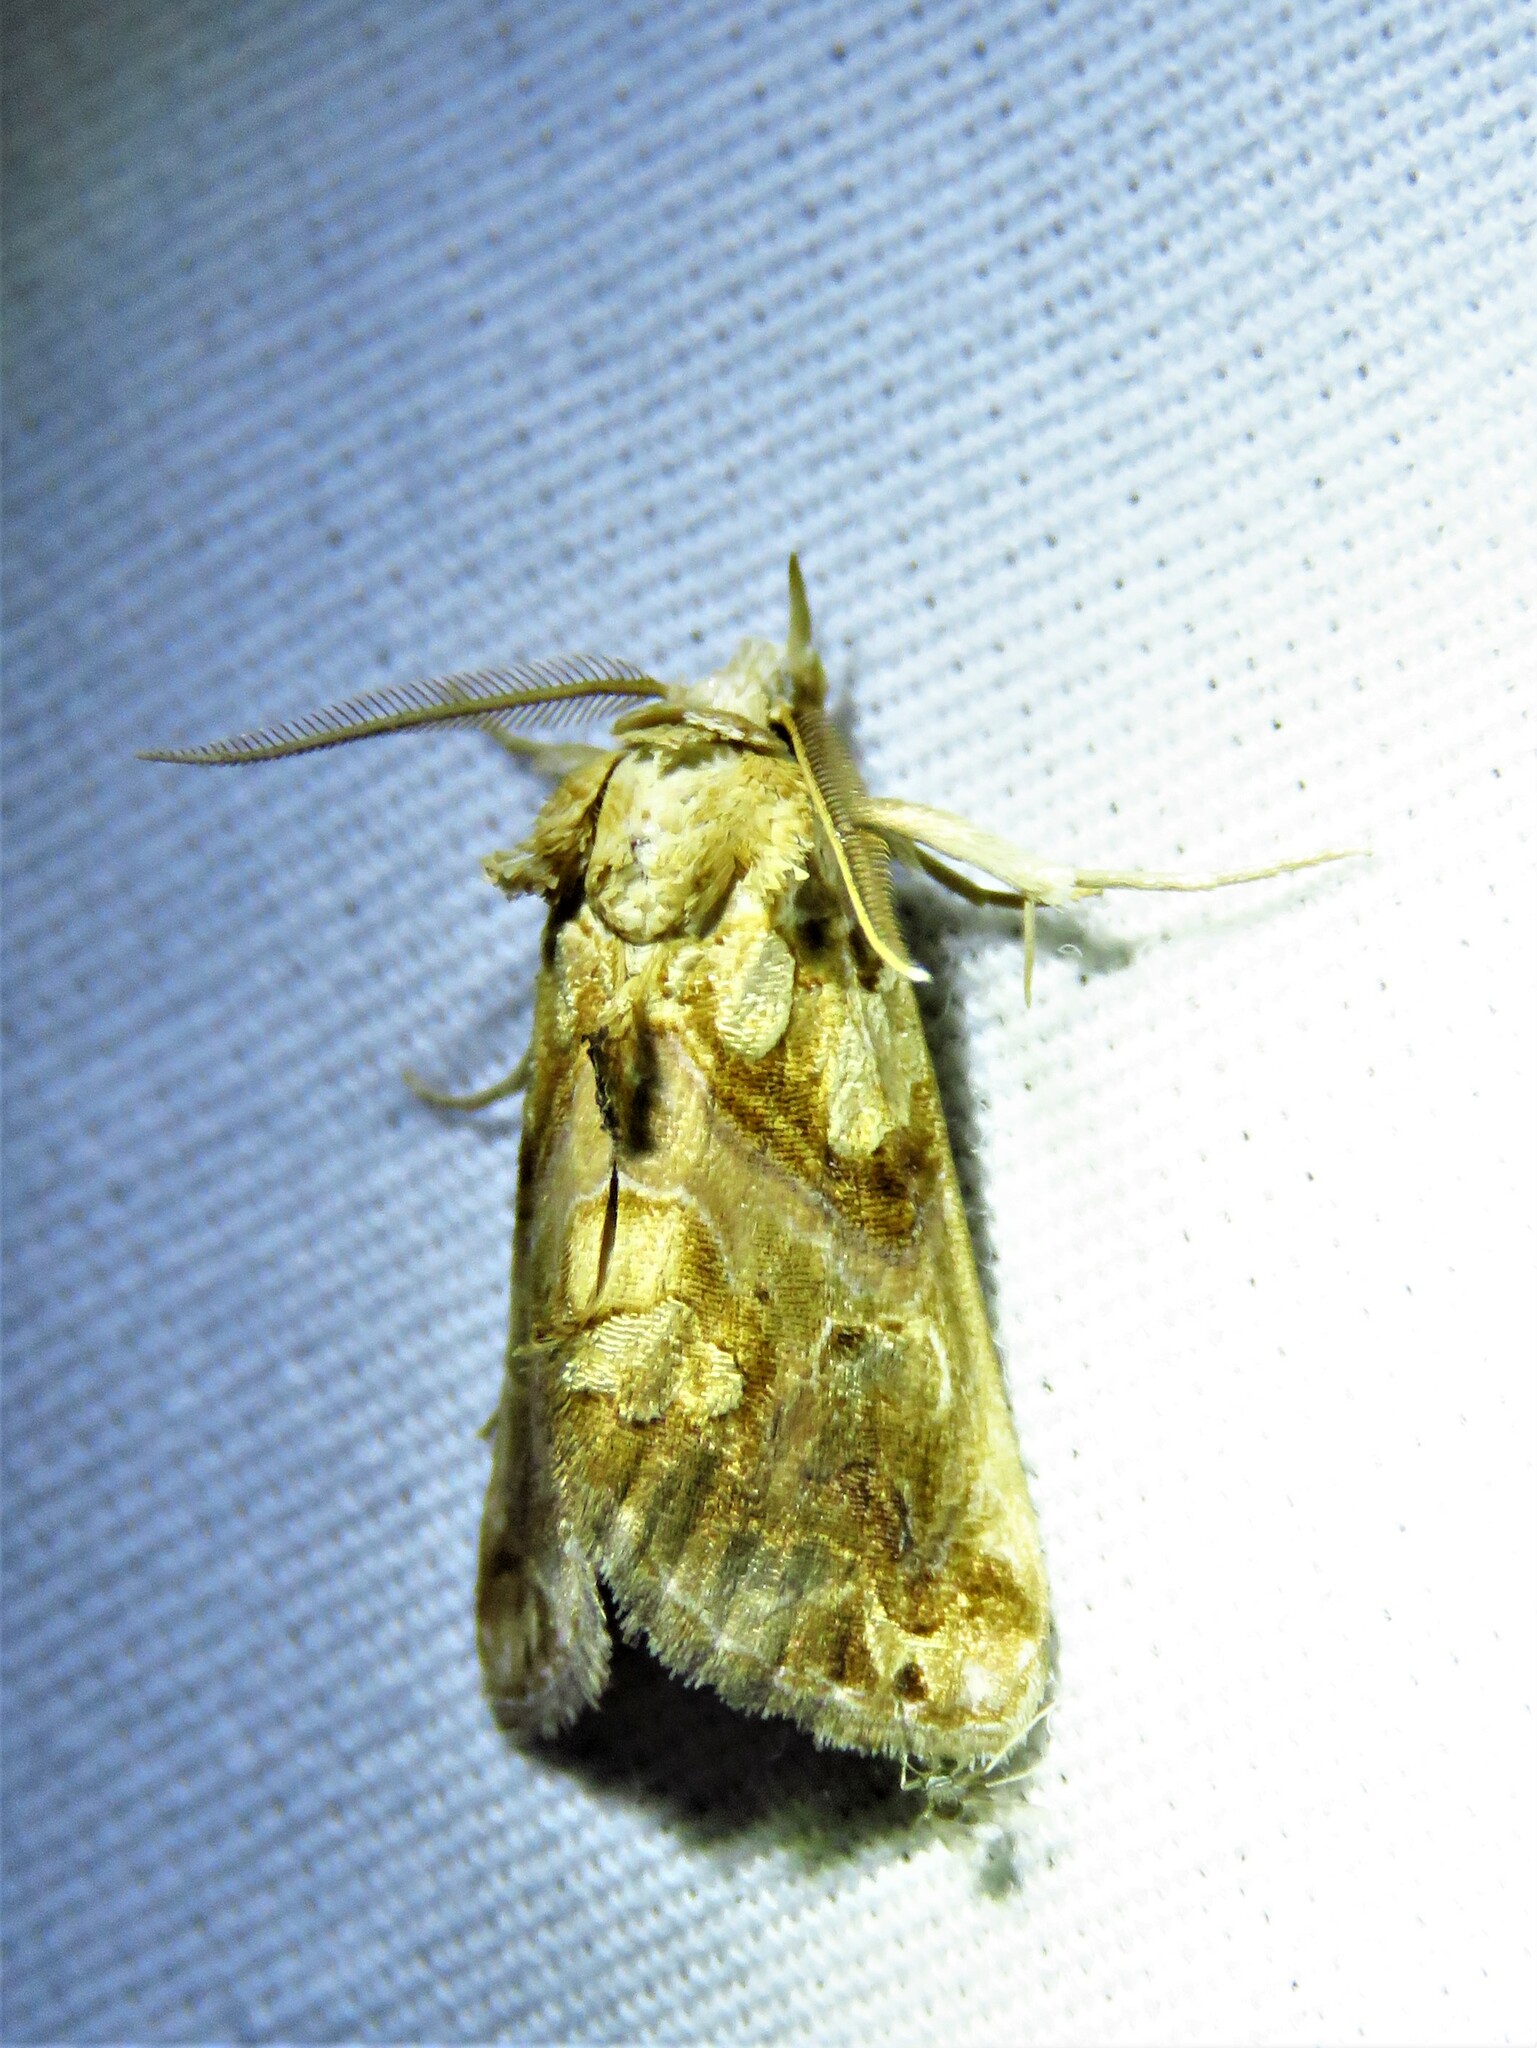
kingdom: Animalia
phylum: Arthropoda
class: Insecta
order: Lepidoptera
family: Erebidae
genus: Plusiodonta
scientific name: Plusiodonta compressipalpis
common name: Moonseed moth
